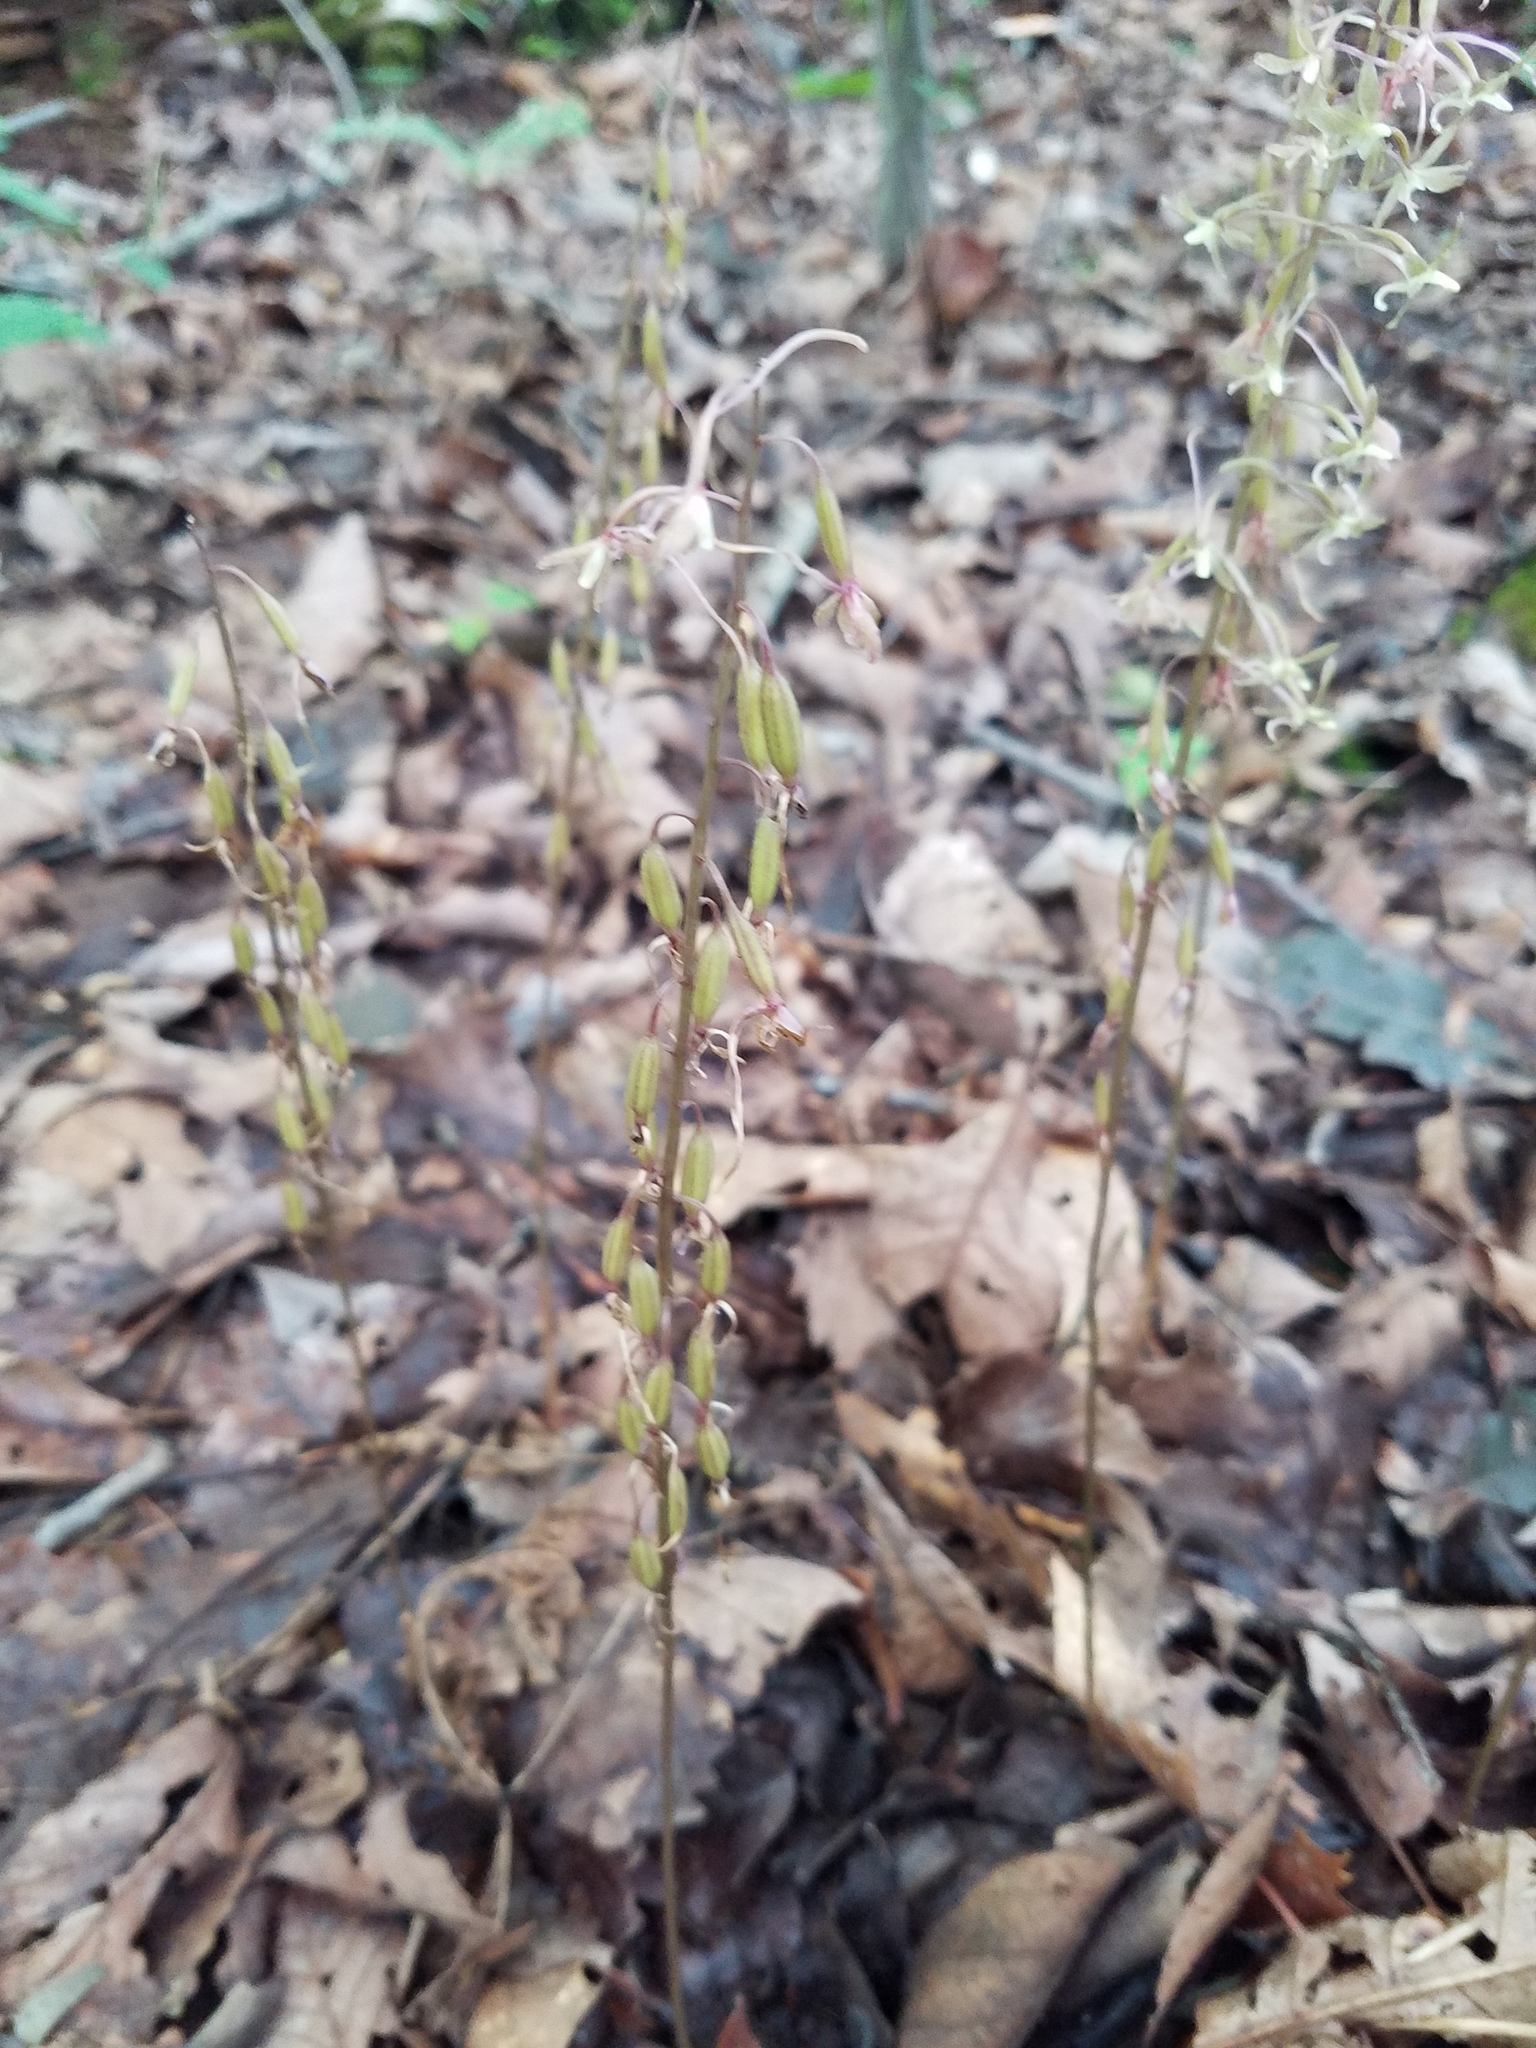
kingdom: Plantae
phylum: Tracheophyta
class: Liliopsida
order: Asparagales
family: Orchidaceae
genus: Tipularia
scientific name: Tipularia discolor
